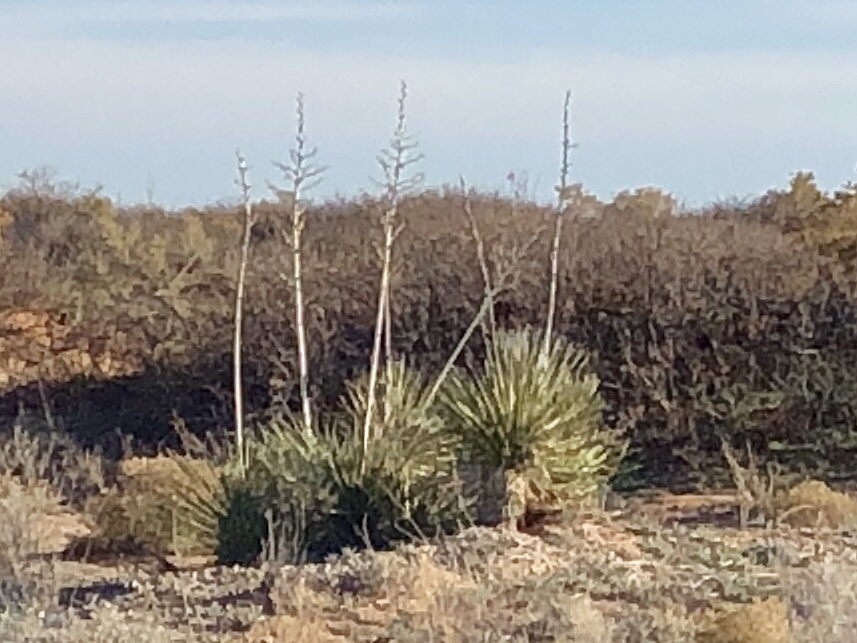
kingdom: Plantae
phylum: Tracheophyta
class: Liliopsida
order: Asparagales
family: Asparagaceae
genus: Yucca
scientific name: Yucca elata
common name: Palmella
